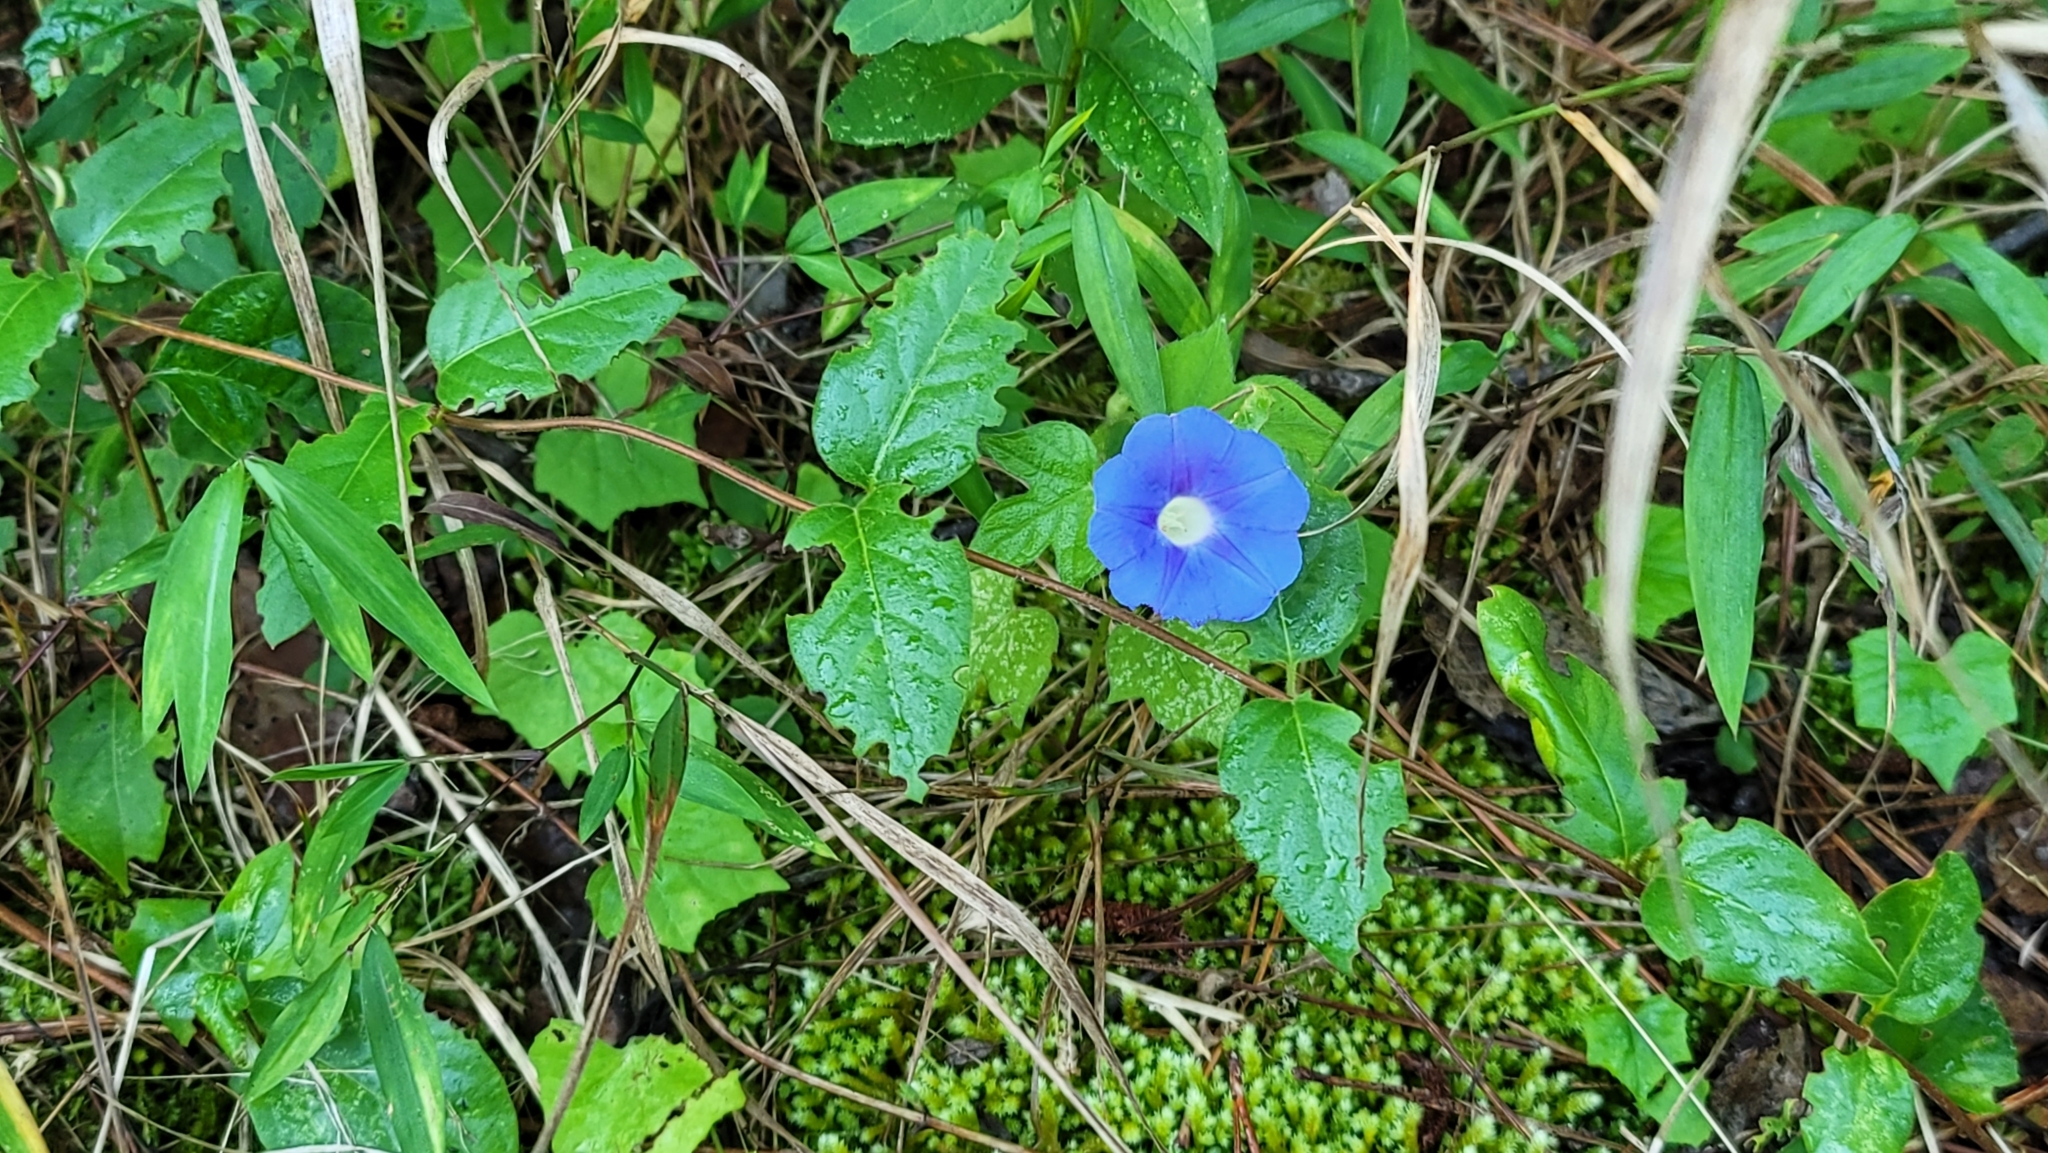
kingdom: Plantae
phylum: Tracheophyta
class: Magnoliopsida
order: Solanales
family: Convolvulaceae
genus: Ipomoea
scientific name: Ipomoea hederacea
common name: Ivy-leaved morning-glory
